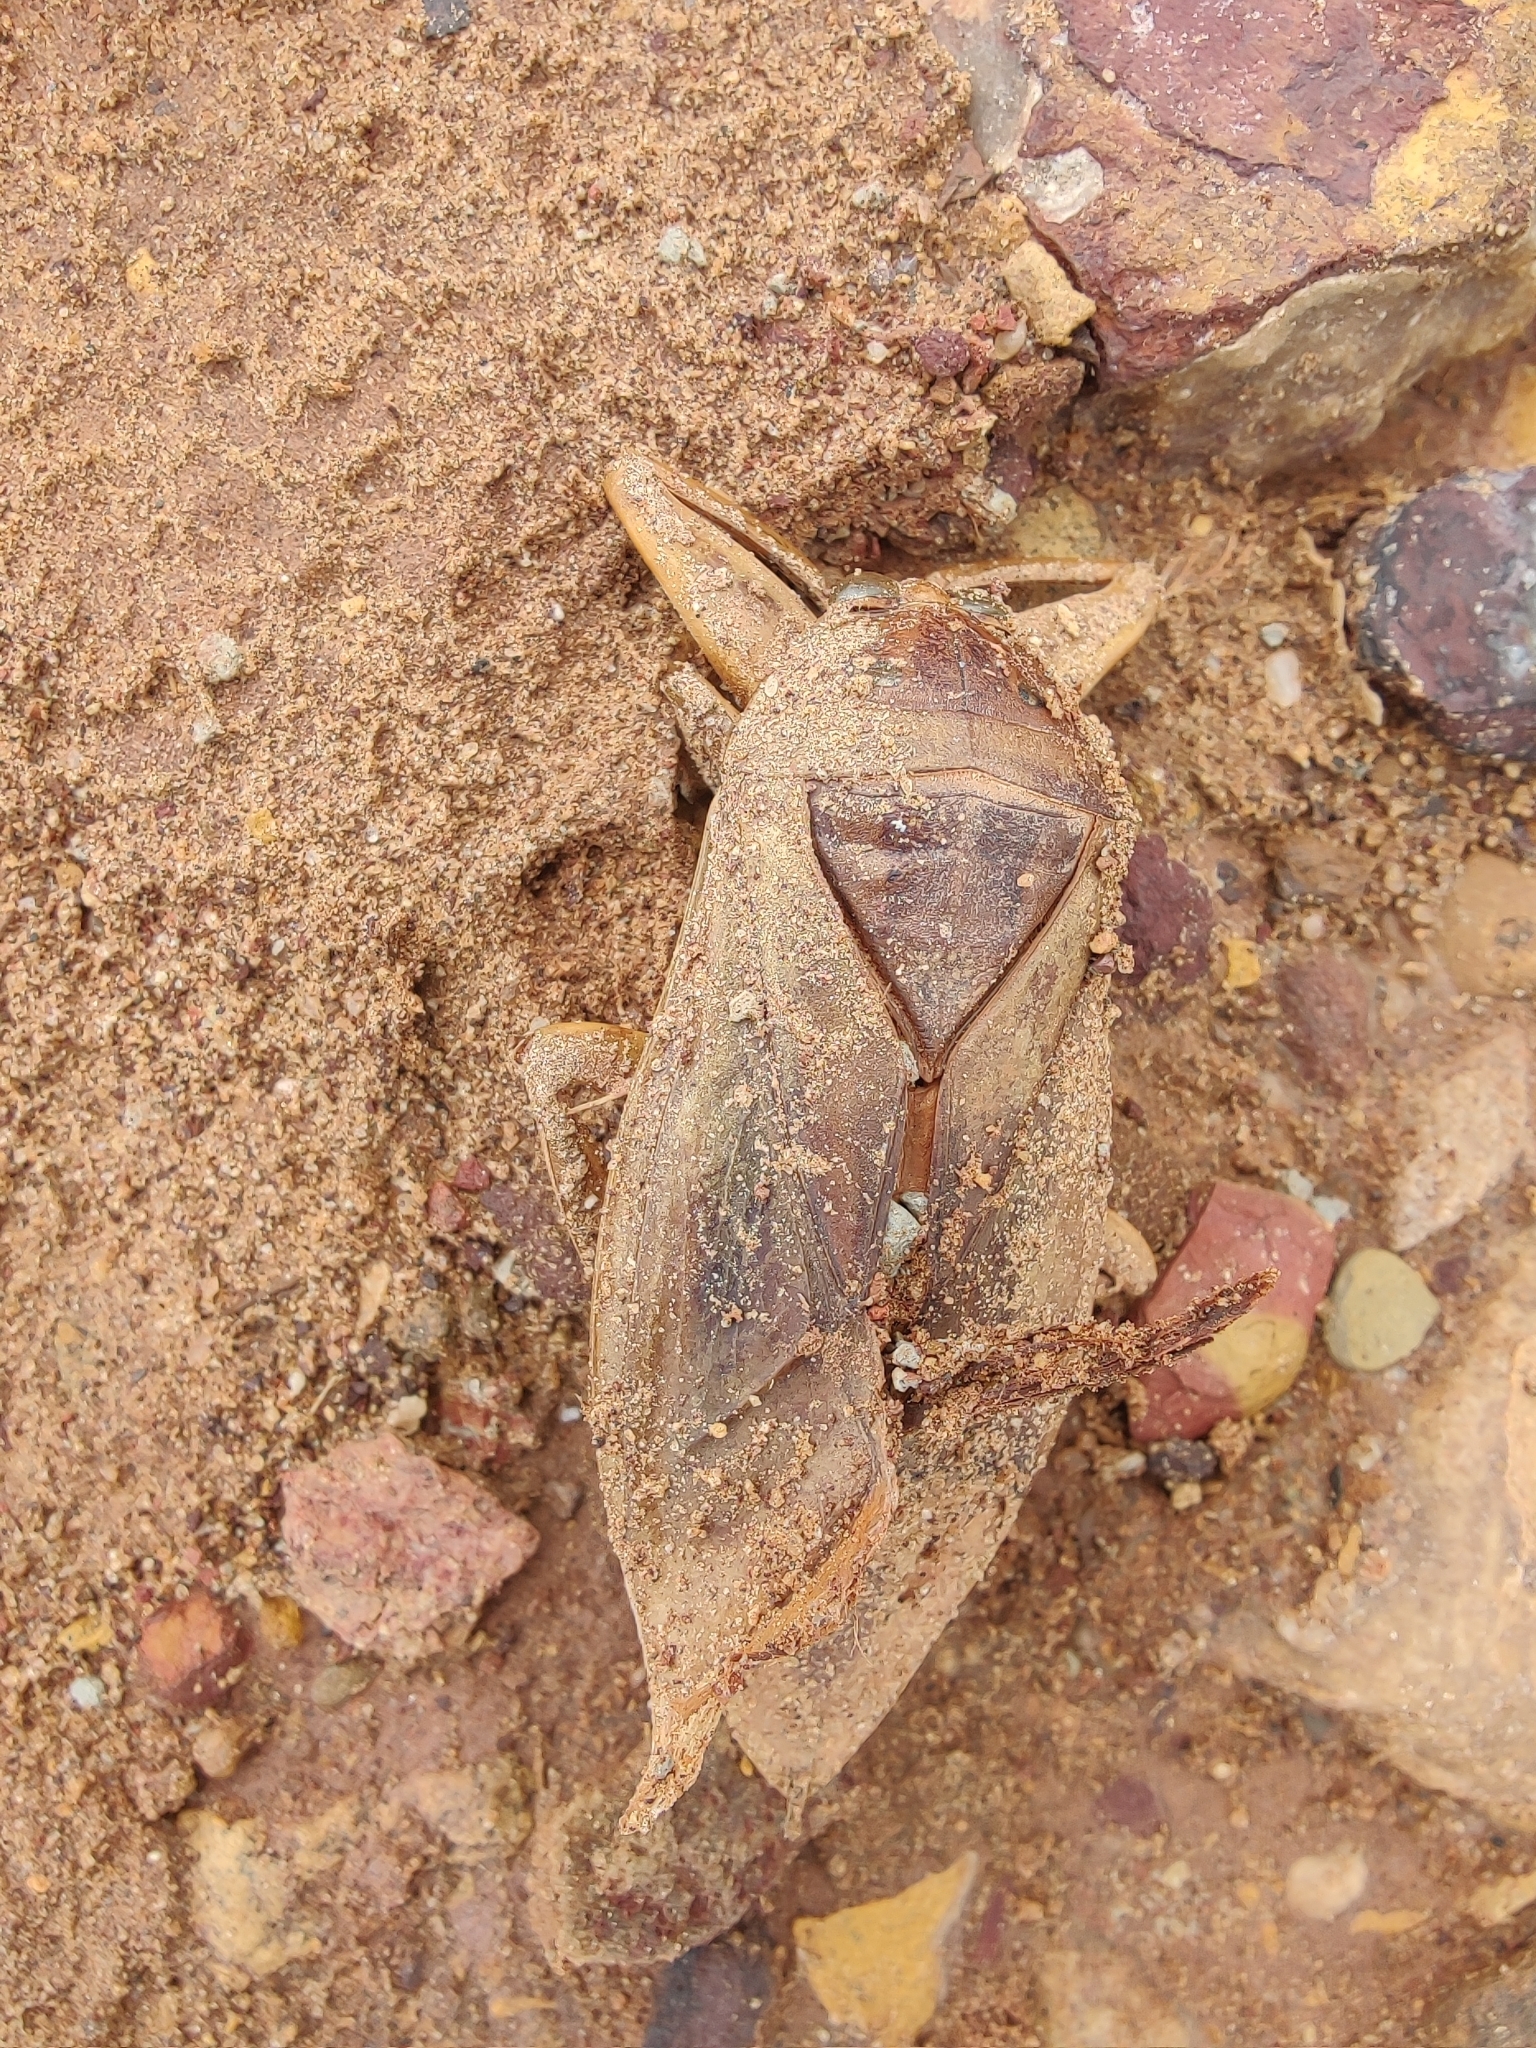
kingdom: Animalia
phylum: Arthropoda
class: Insecta
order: Hemiptera
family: Belostomatidae
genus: Lethocerus
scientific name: Lethocerus
